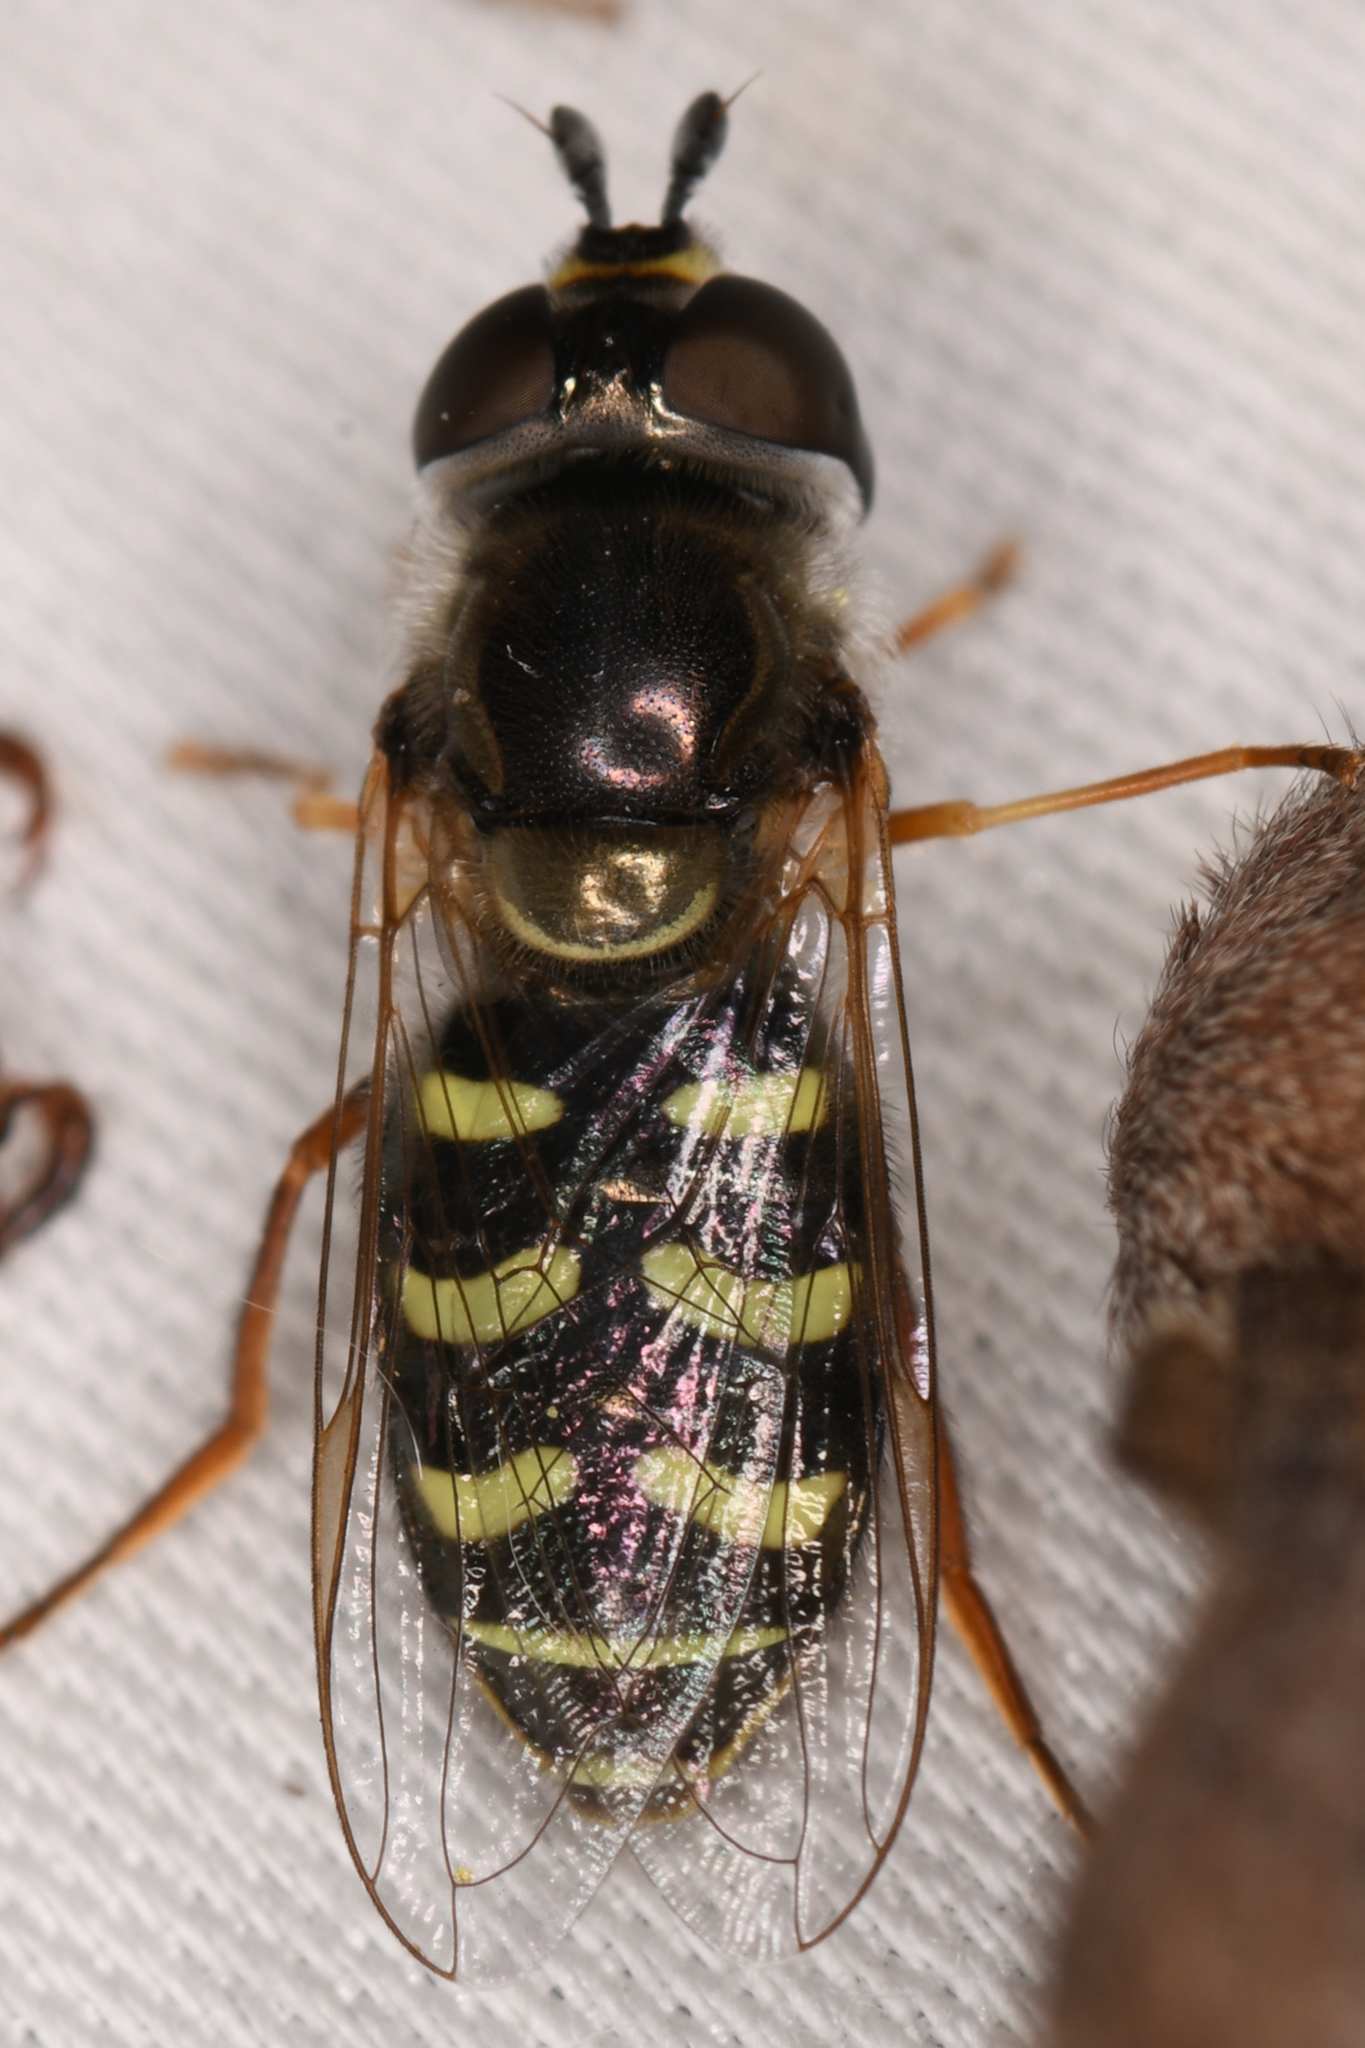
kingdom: Animalia
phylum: Arthropoda
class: Insecta
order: Diptera
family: Syrphidae
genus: Eupeodes
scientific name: Eupeodes volucris
